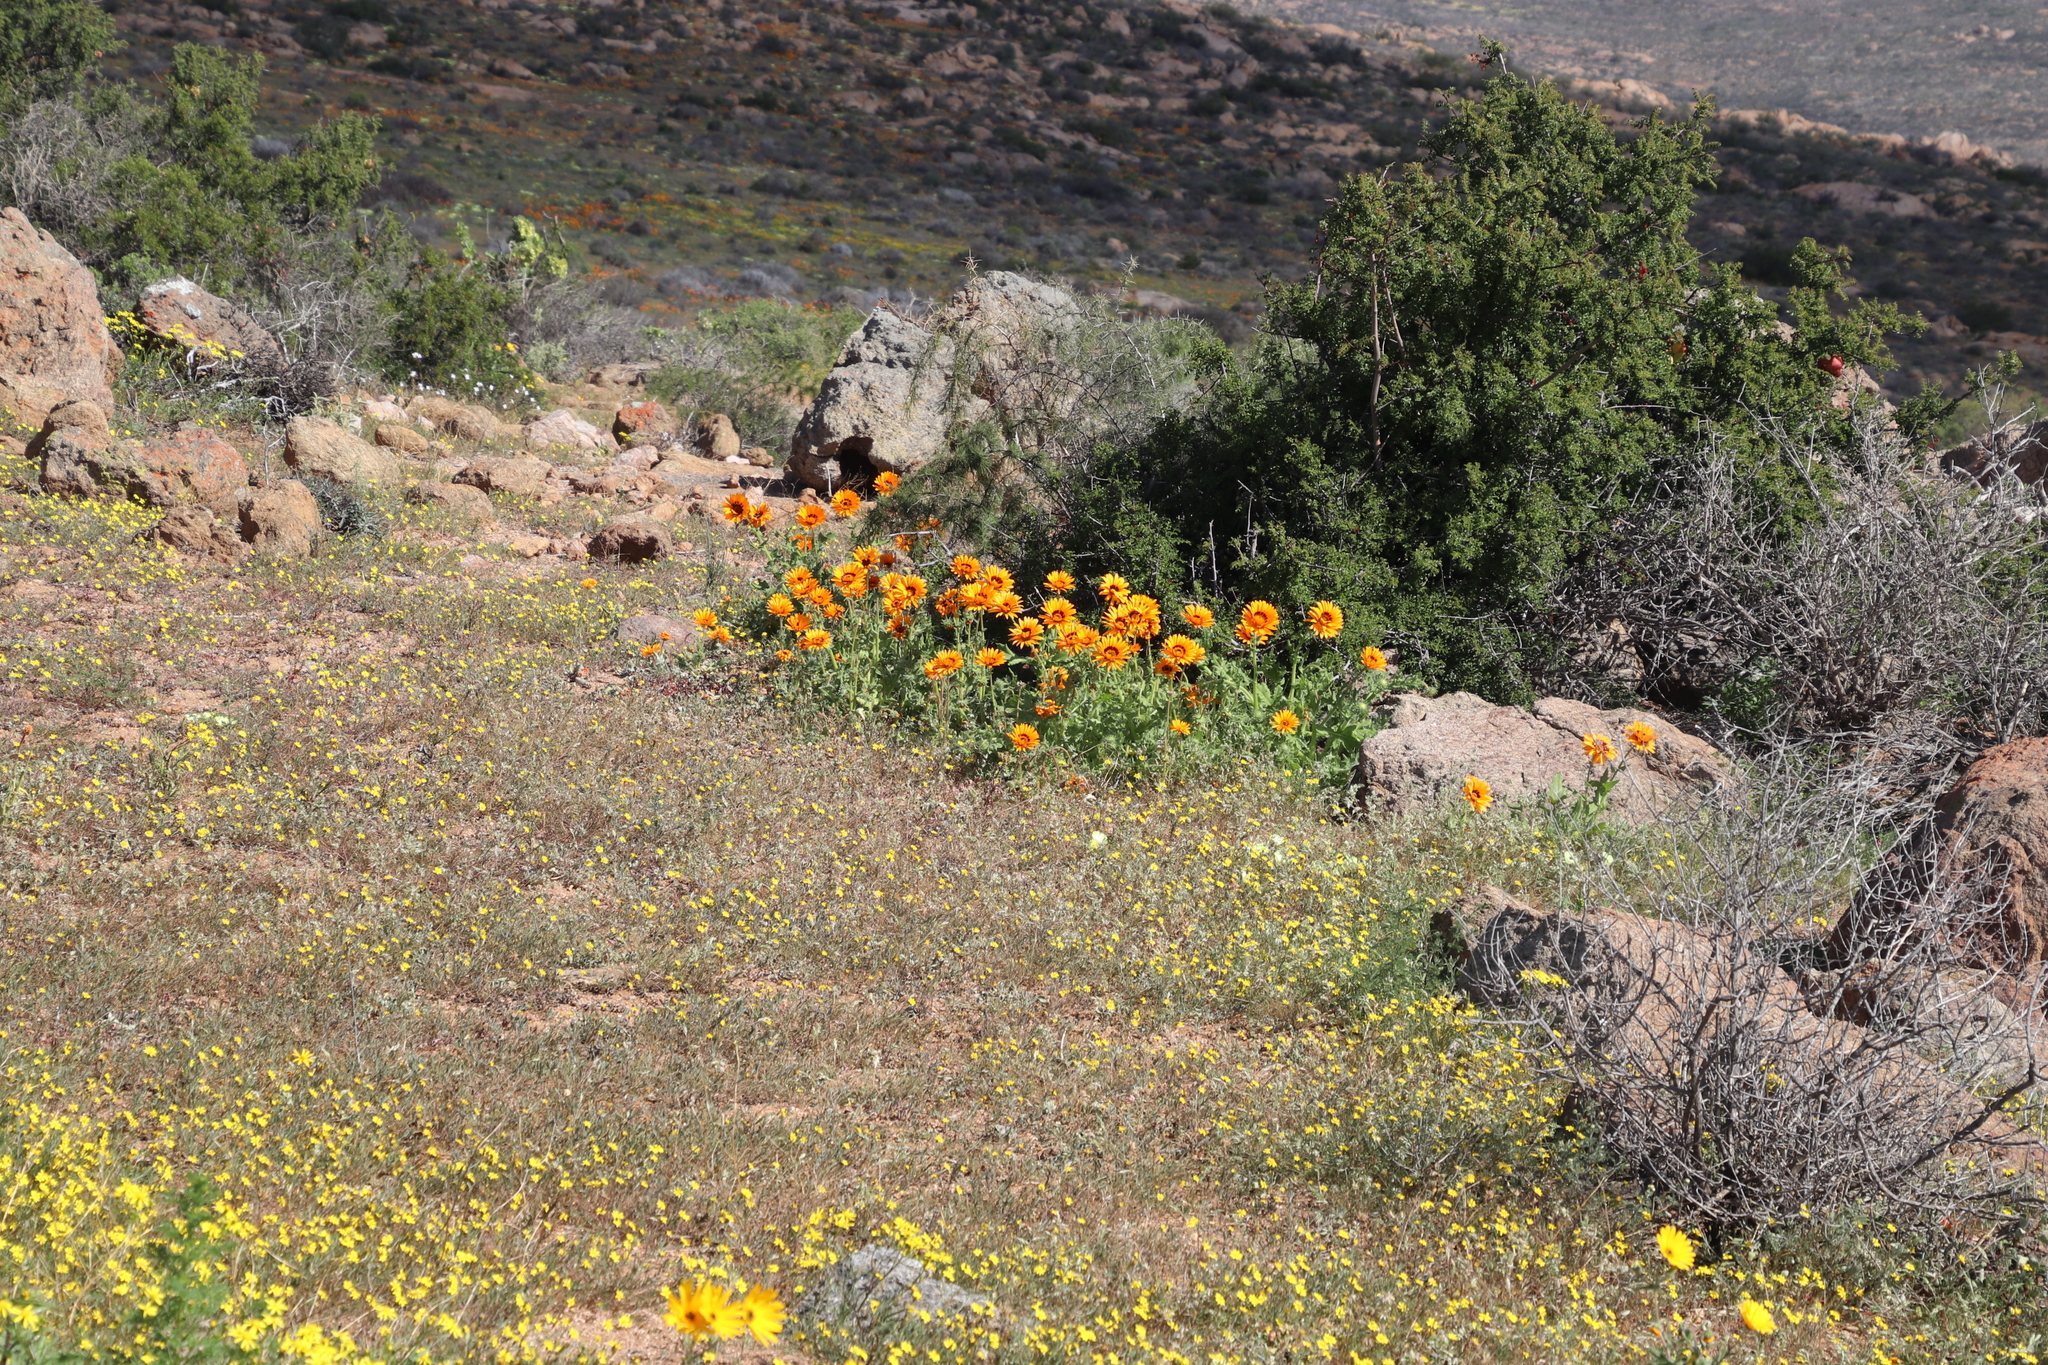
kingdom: Plantae
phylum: Tracheophyta
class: Magnoliopsida
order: Asterales
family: Asteraceae
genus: Senecio
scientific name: Senecio abruptus
